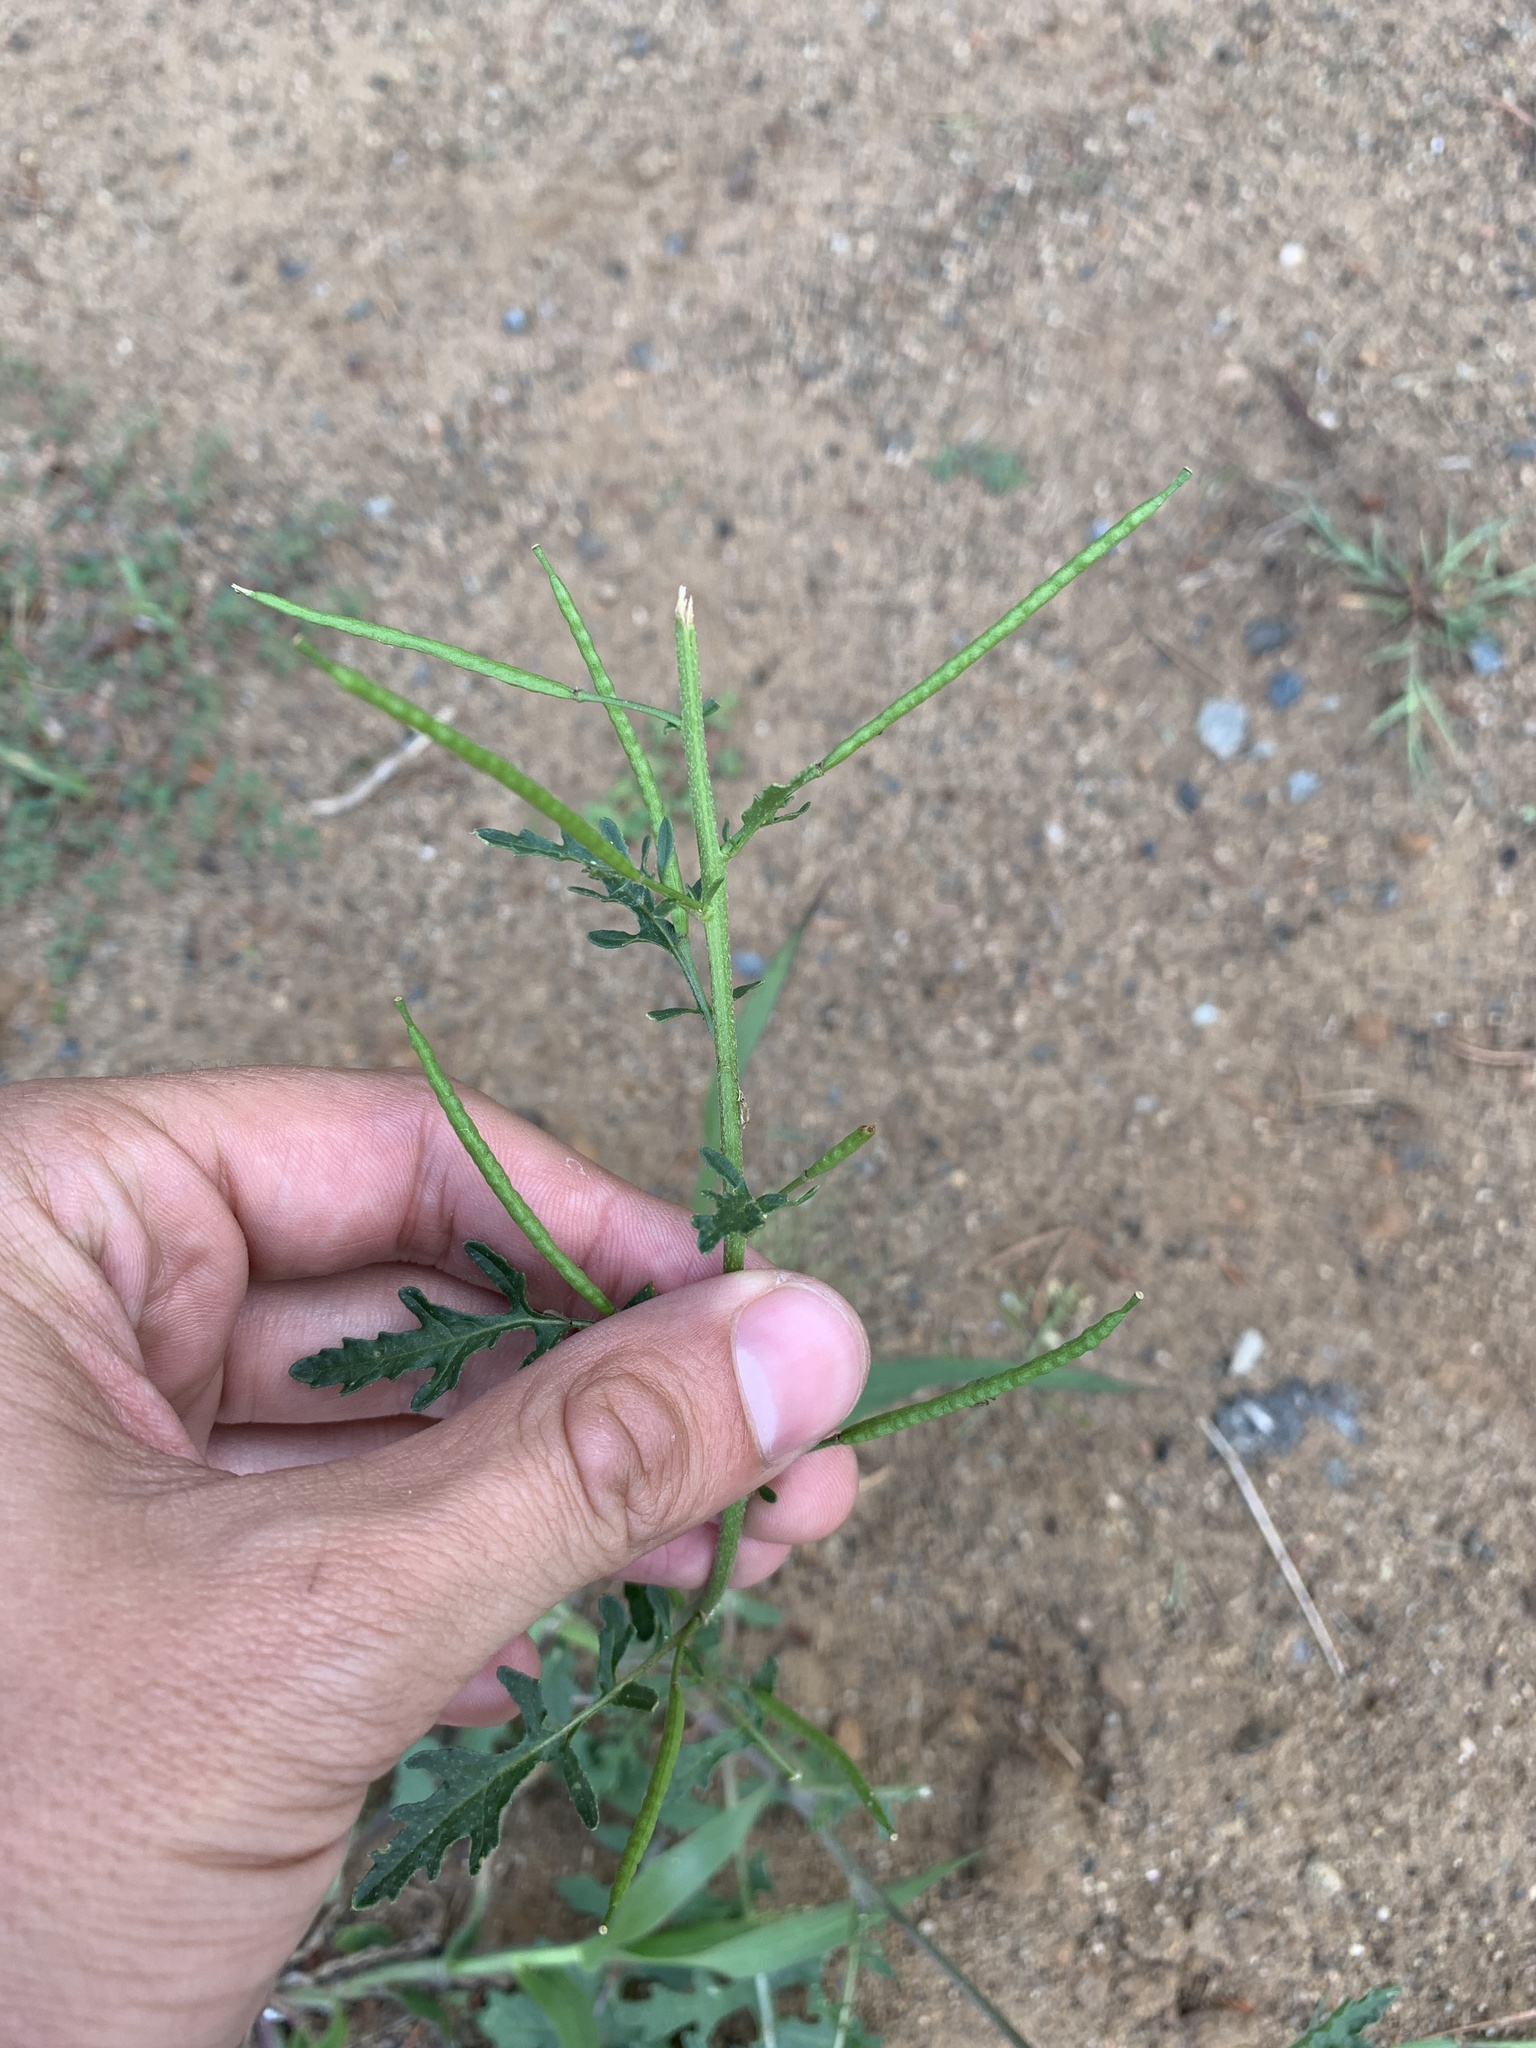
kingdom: Plantae
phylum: Tracheophyta
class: Magnoliopsida
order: Brassicales
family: Brassicaceae
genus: Erucastrum
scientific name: Erucastrum gallicum
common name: Hairy rocket
